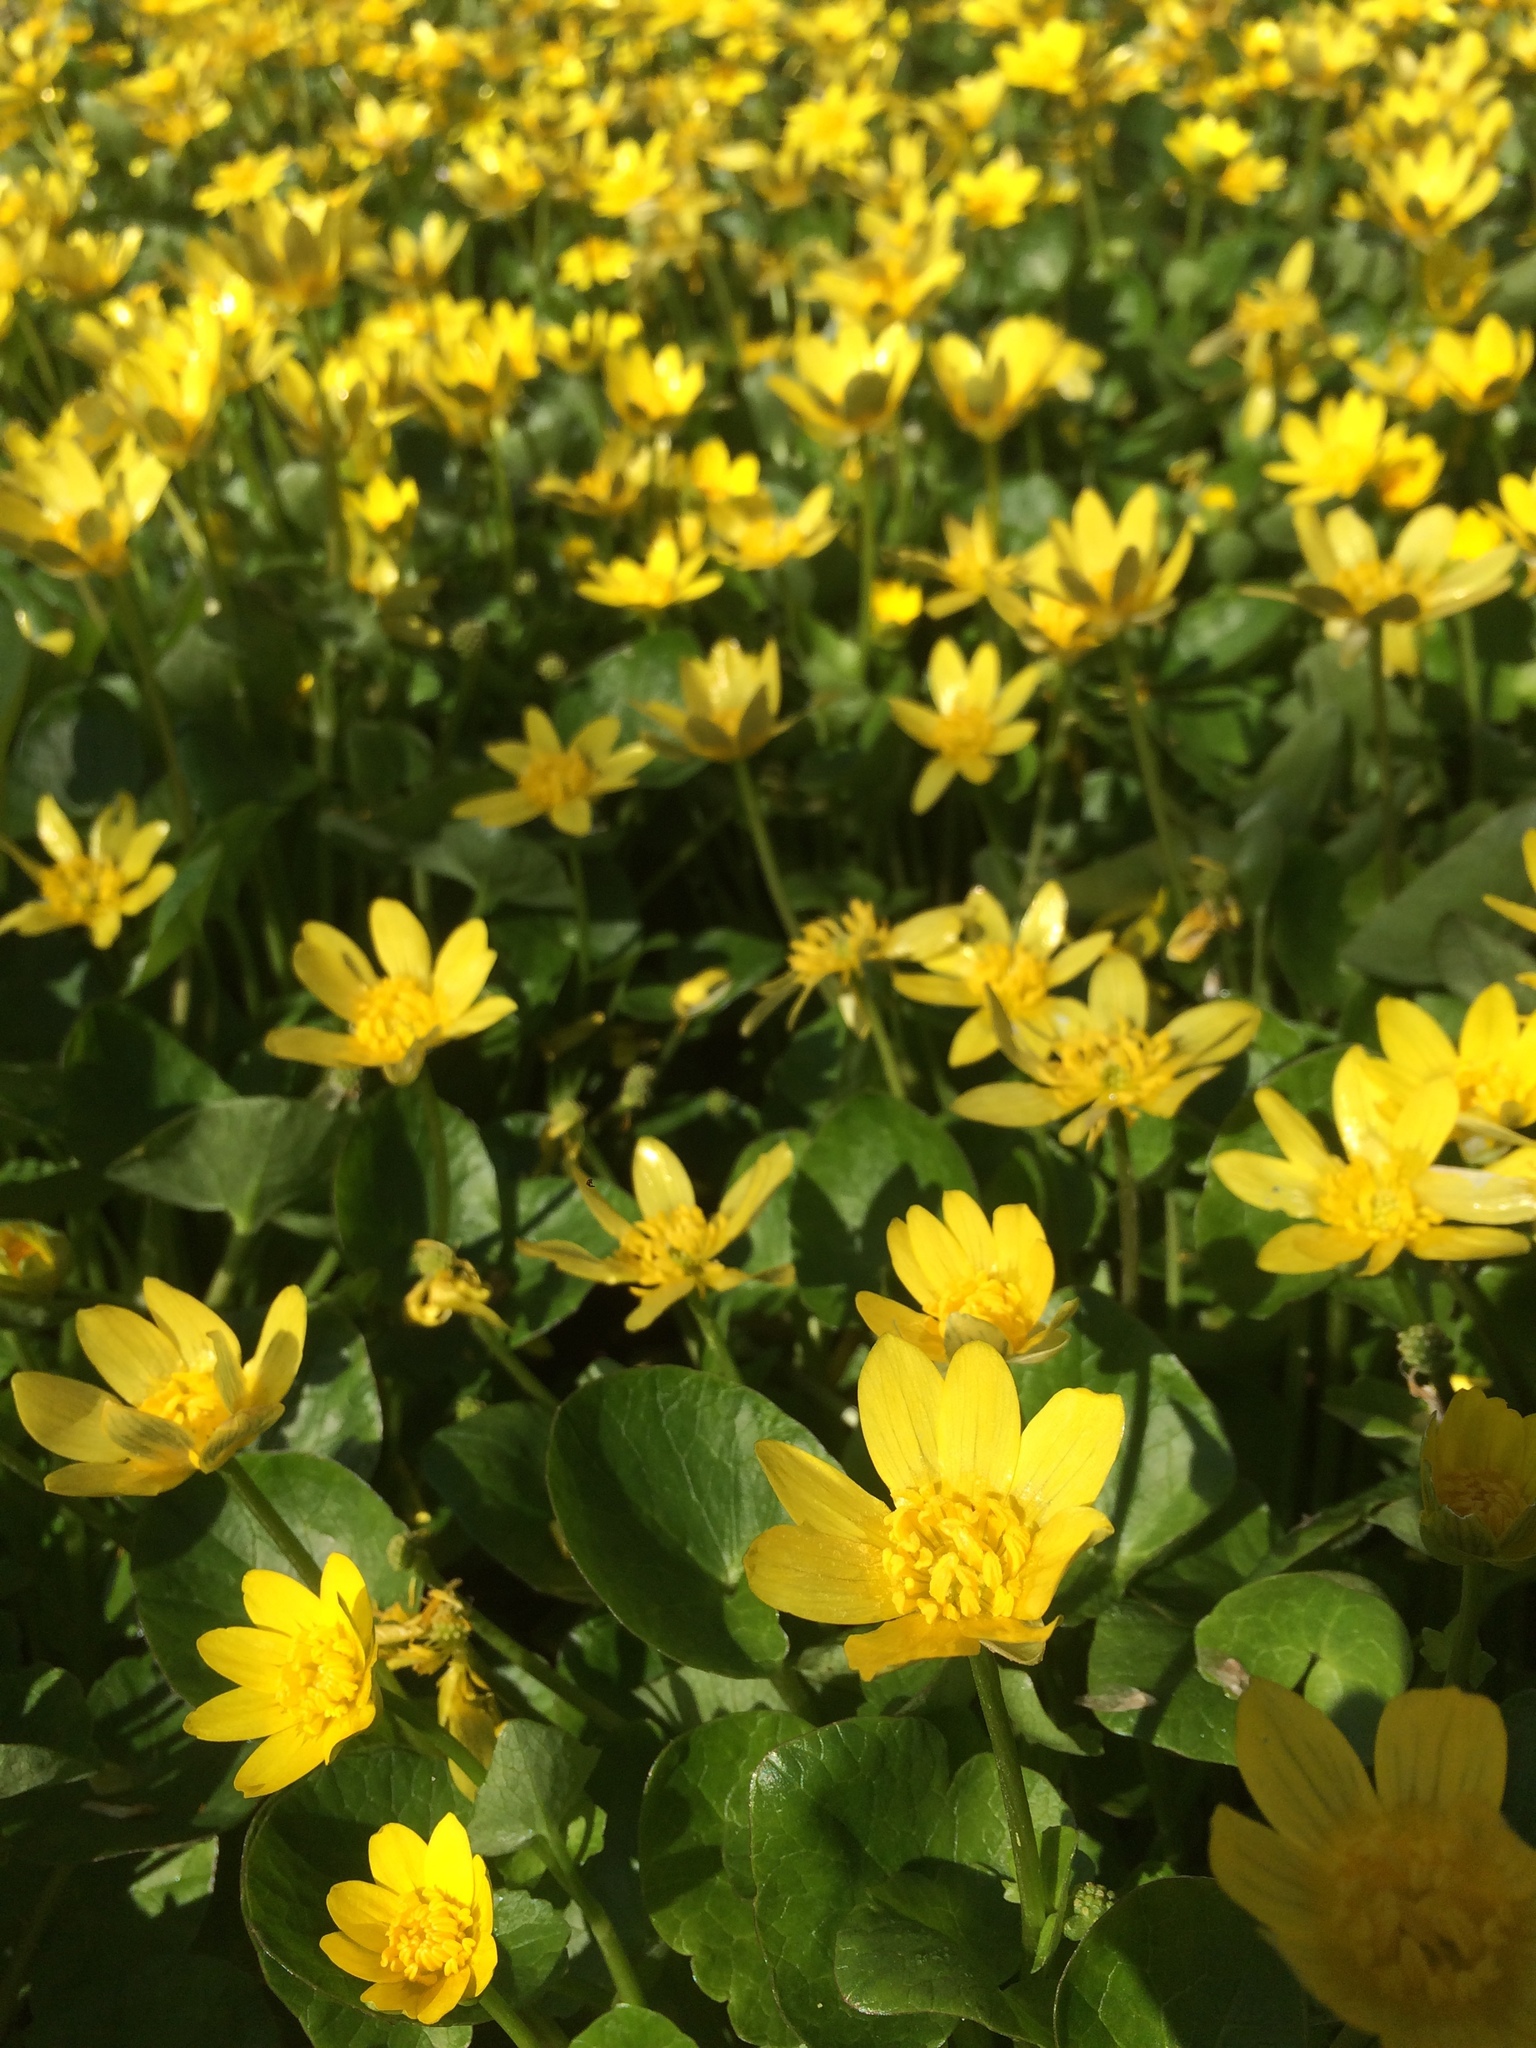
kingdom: Plantae
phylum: Tracheophyta
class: Magnoliopsida
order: Ranunculales
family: Ranunculaceae
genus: Ficaria
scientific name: Ficaria verna
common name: Lesser celandine
